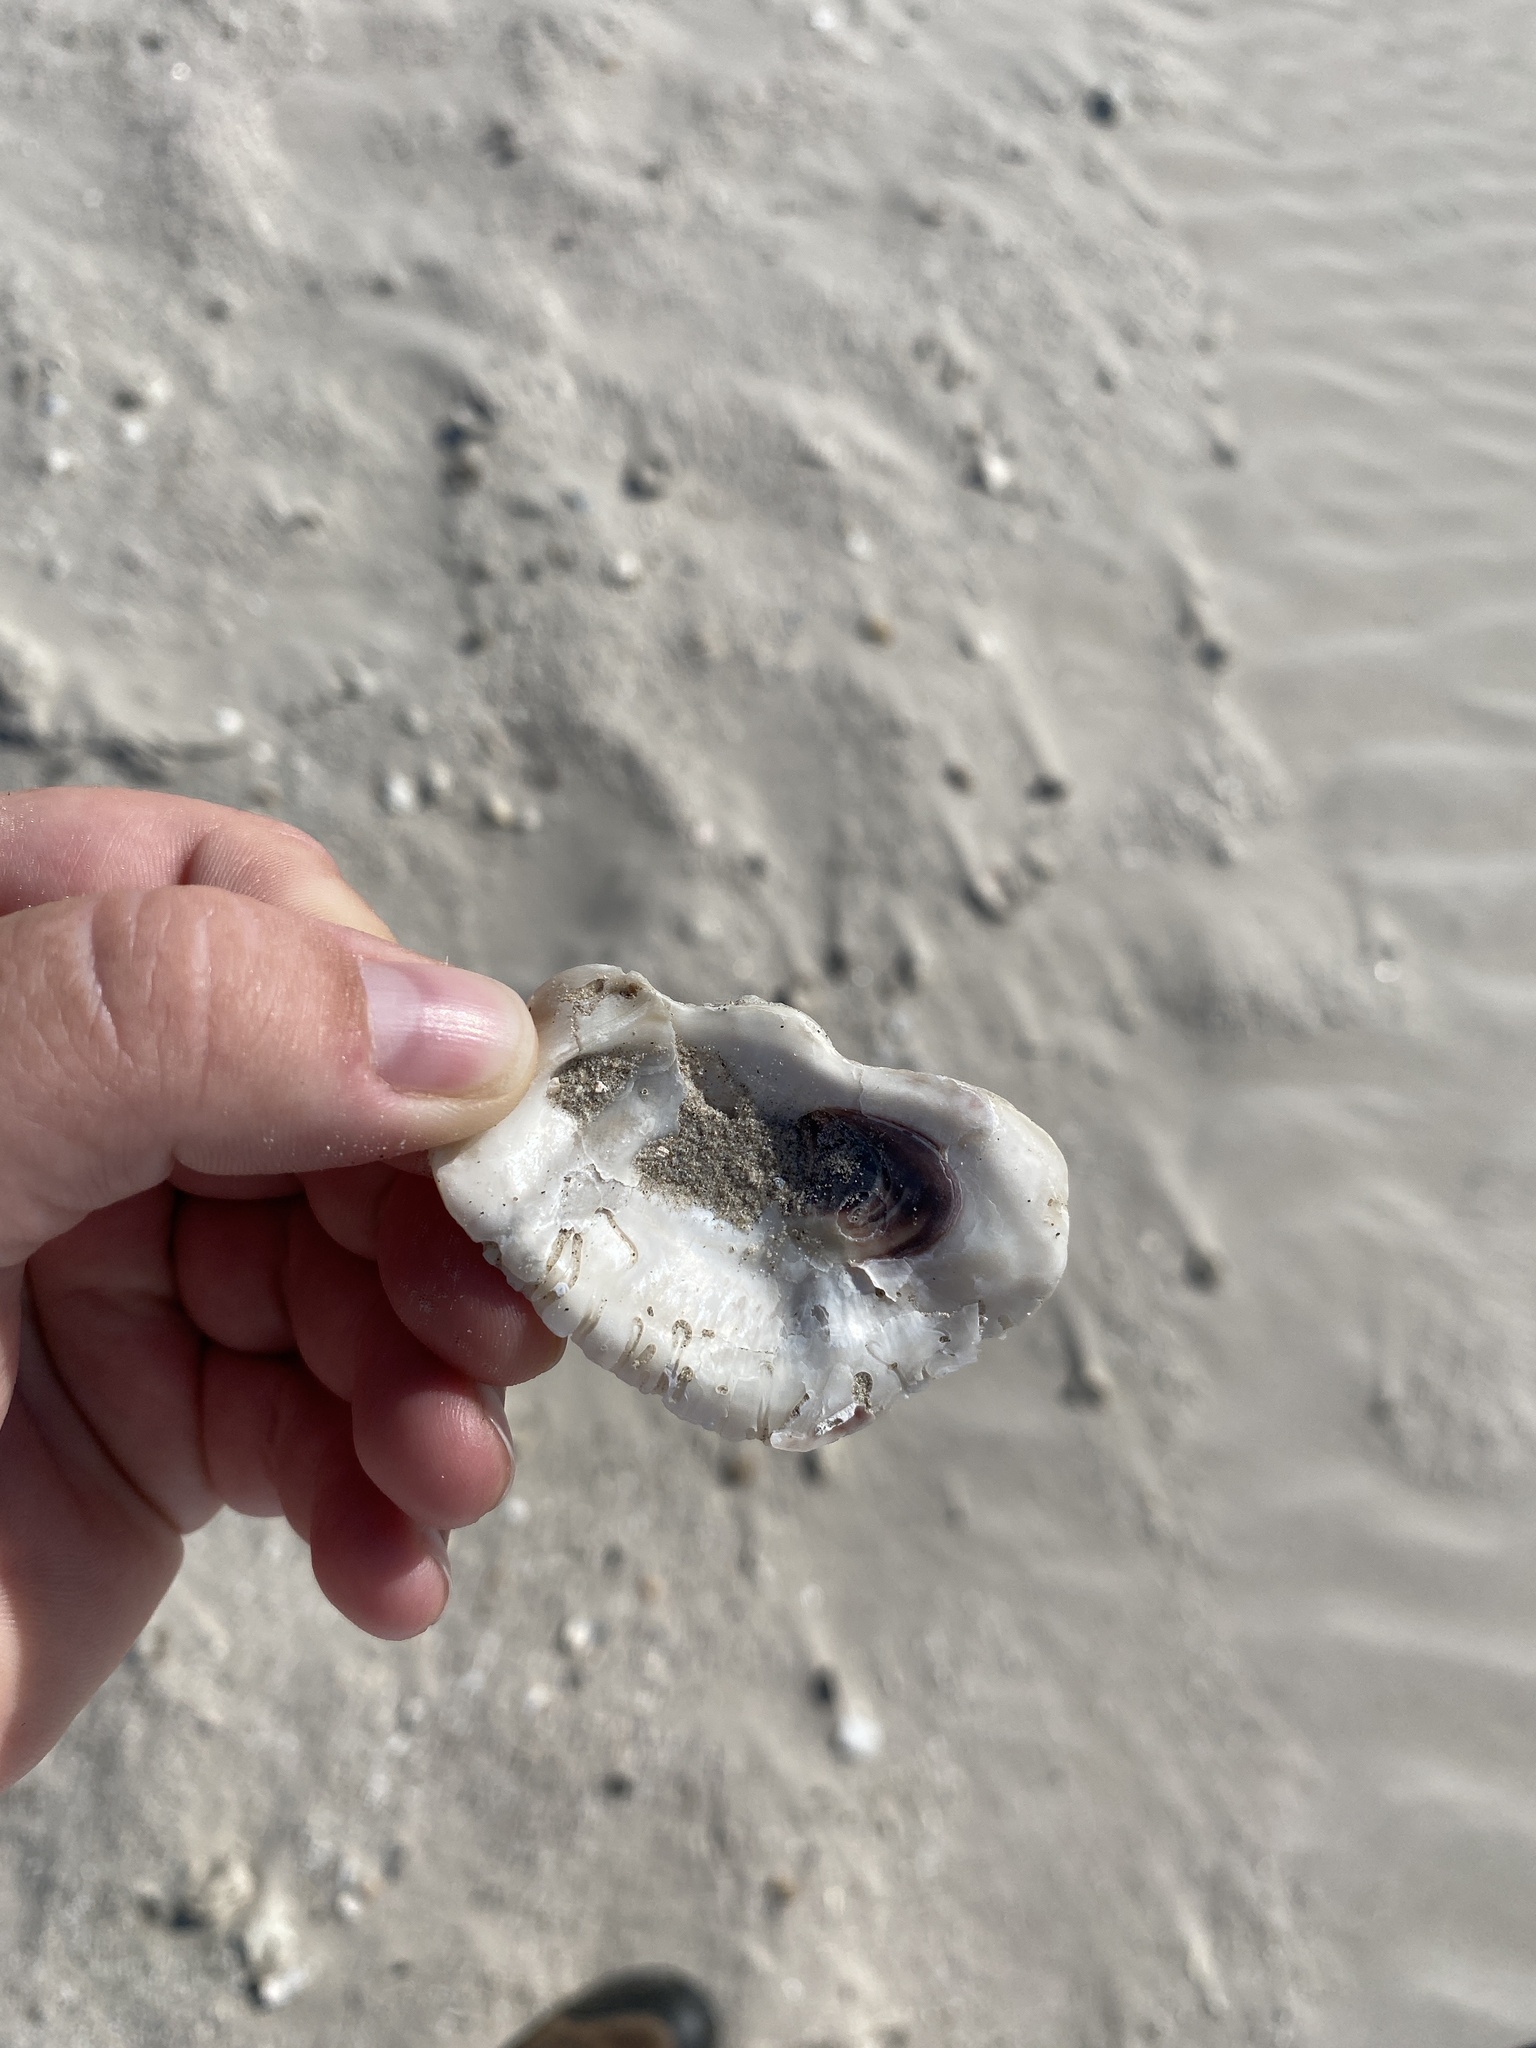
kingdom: Animalia
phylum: Mollusca
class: Bivalvia
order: Ostreida
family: Ostreidae
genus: Crassostrea
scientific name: Crassostrea virginica
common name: American oyster
